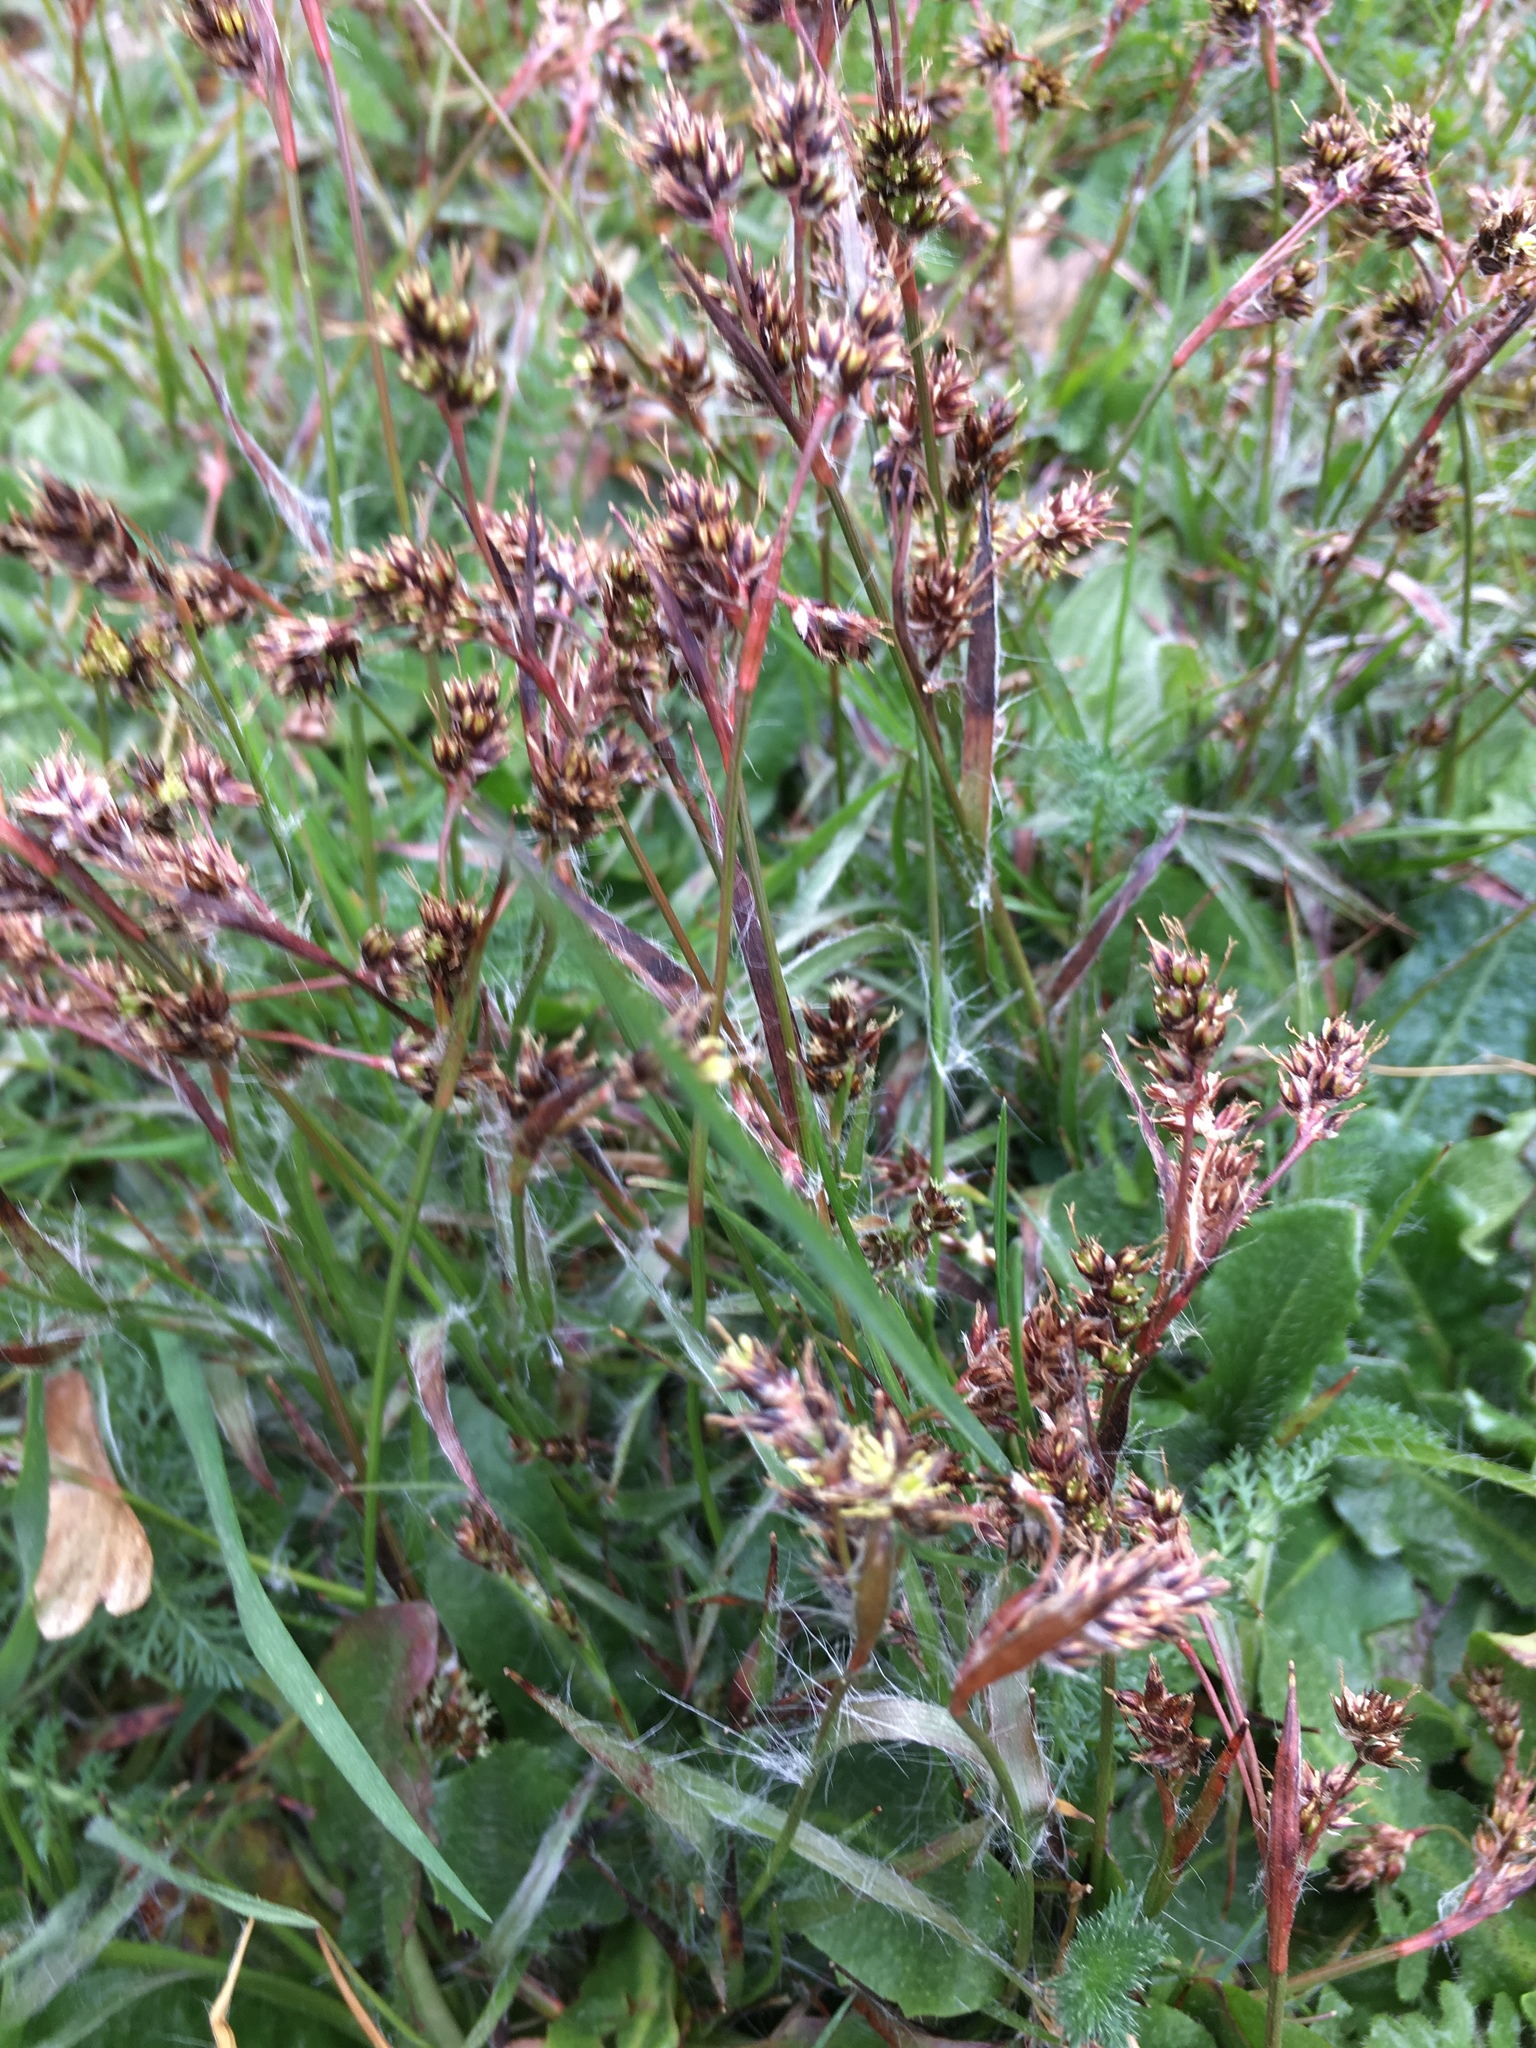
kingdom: Plantae
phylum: Tracheophyta
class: Liliopsida
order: Poales
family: Juncaceae
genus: Luzula
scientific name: Luzula campestris
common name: Field wood-rush
